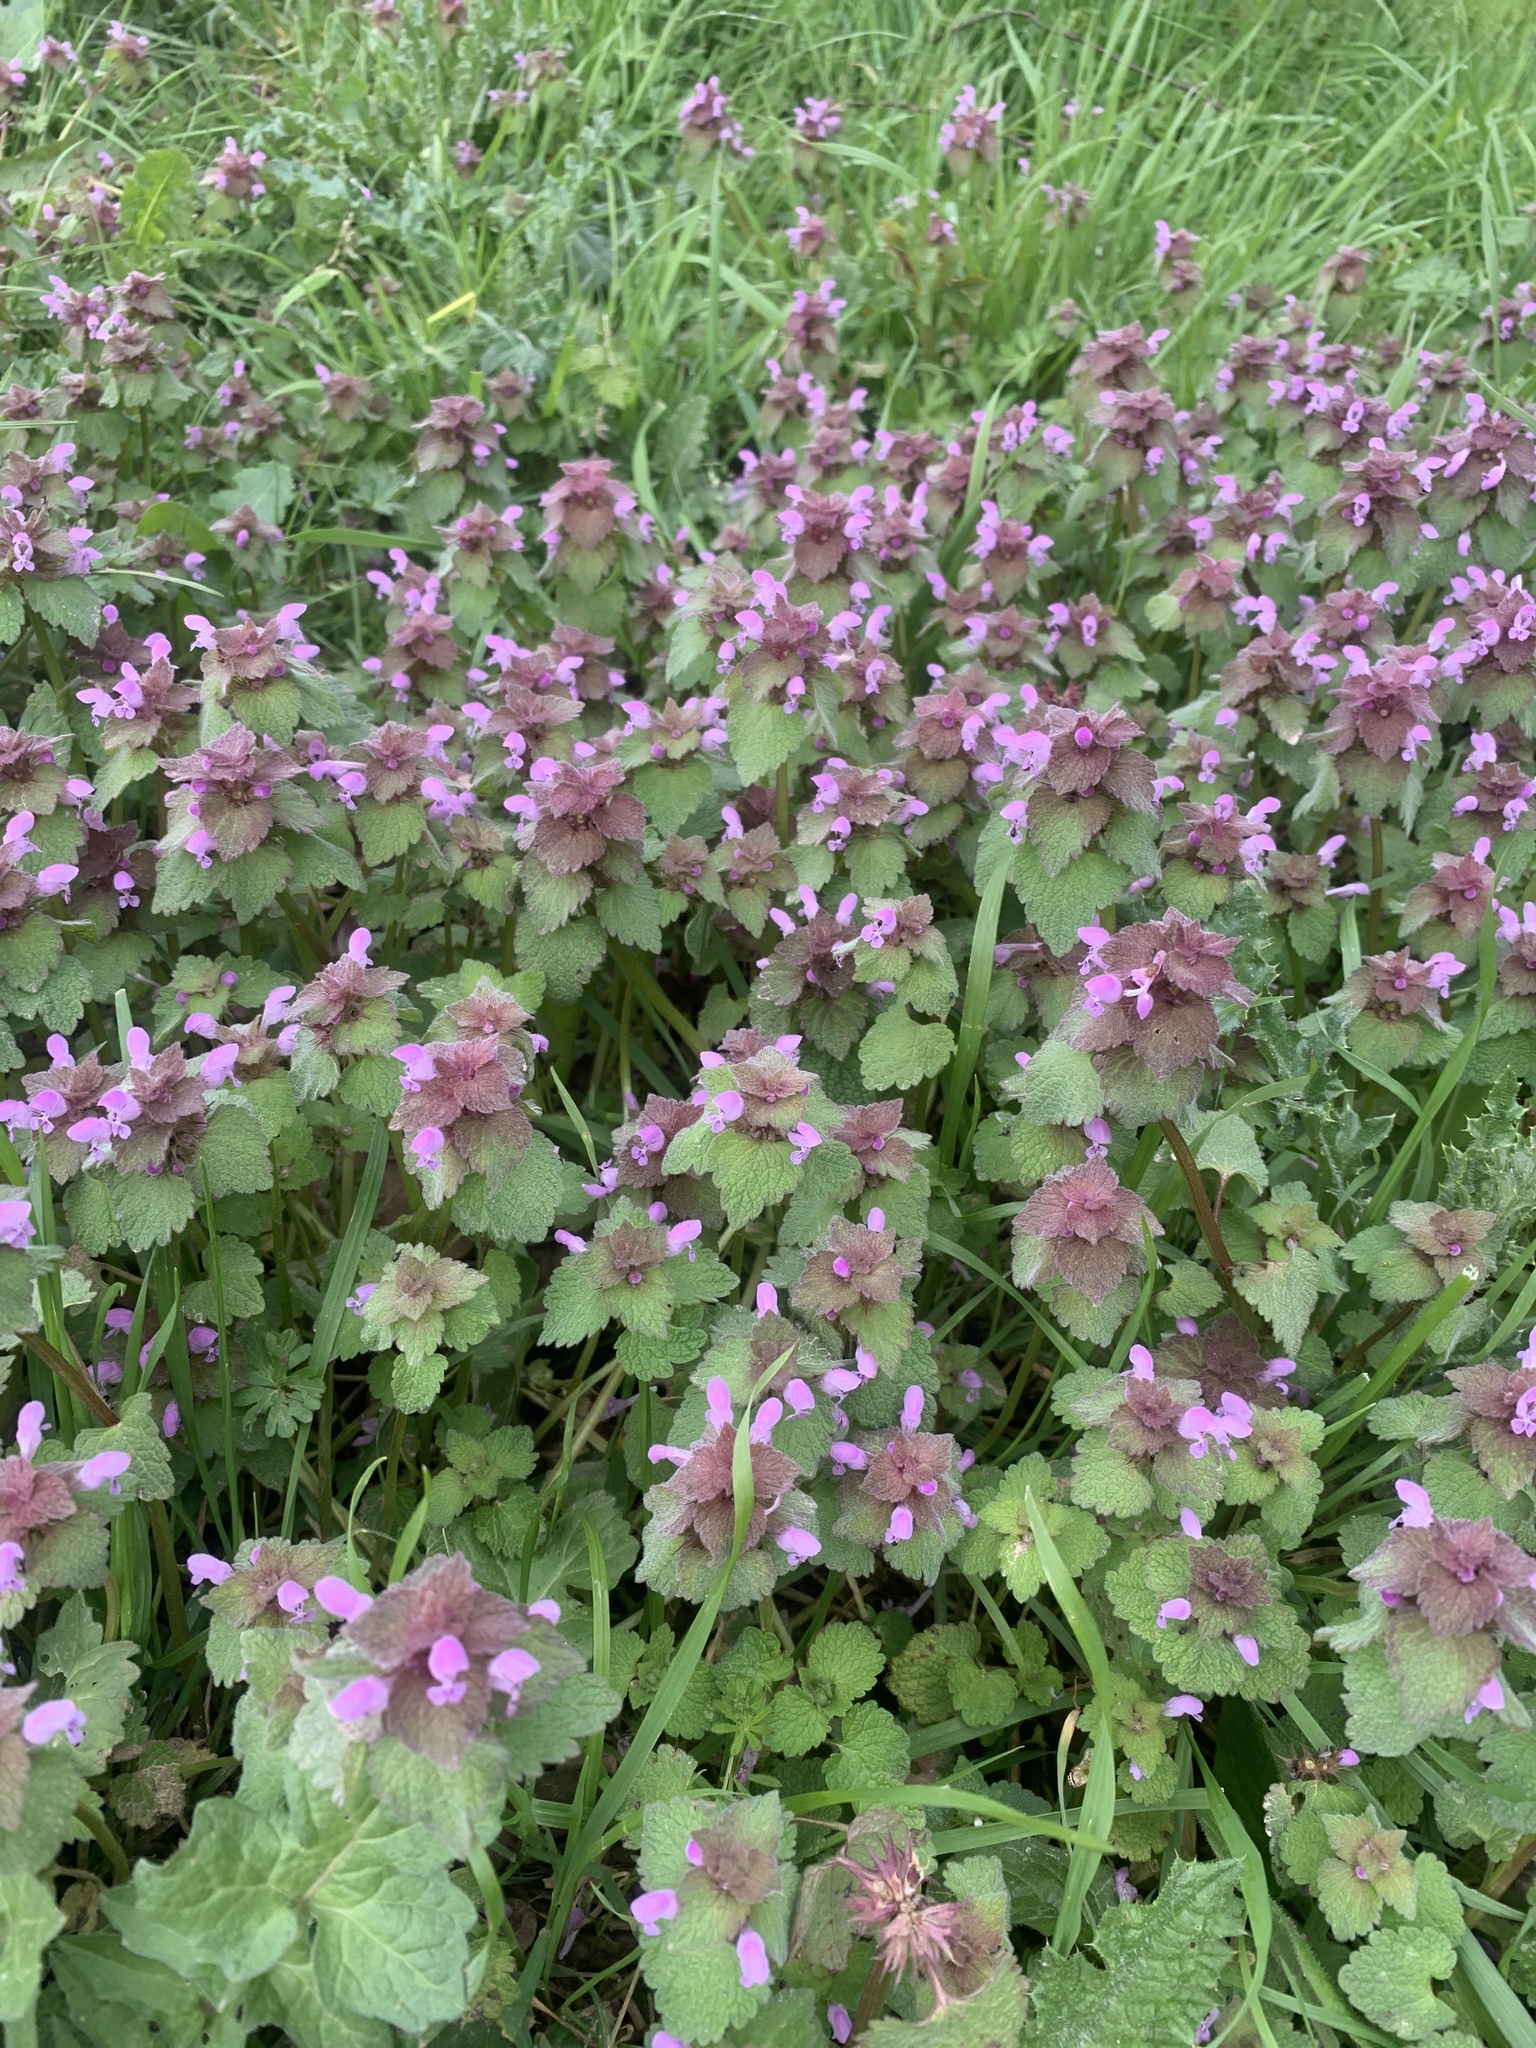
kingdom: Plantae
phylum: Tracheophyta
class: Magnoliopsida
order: Lamiales
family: Lamiaceae
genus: Lamium
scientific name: Lamium purpureum
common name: Red dead-nettle
